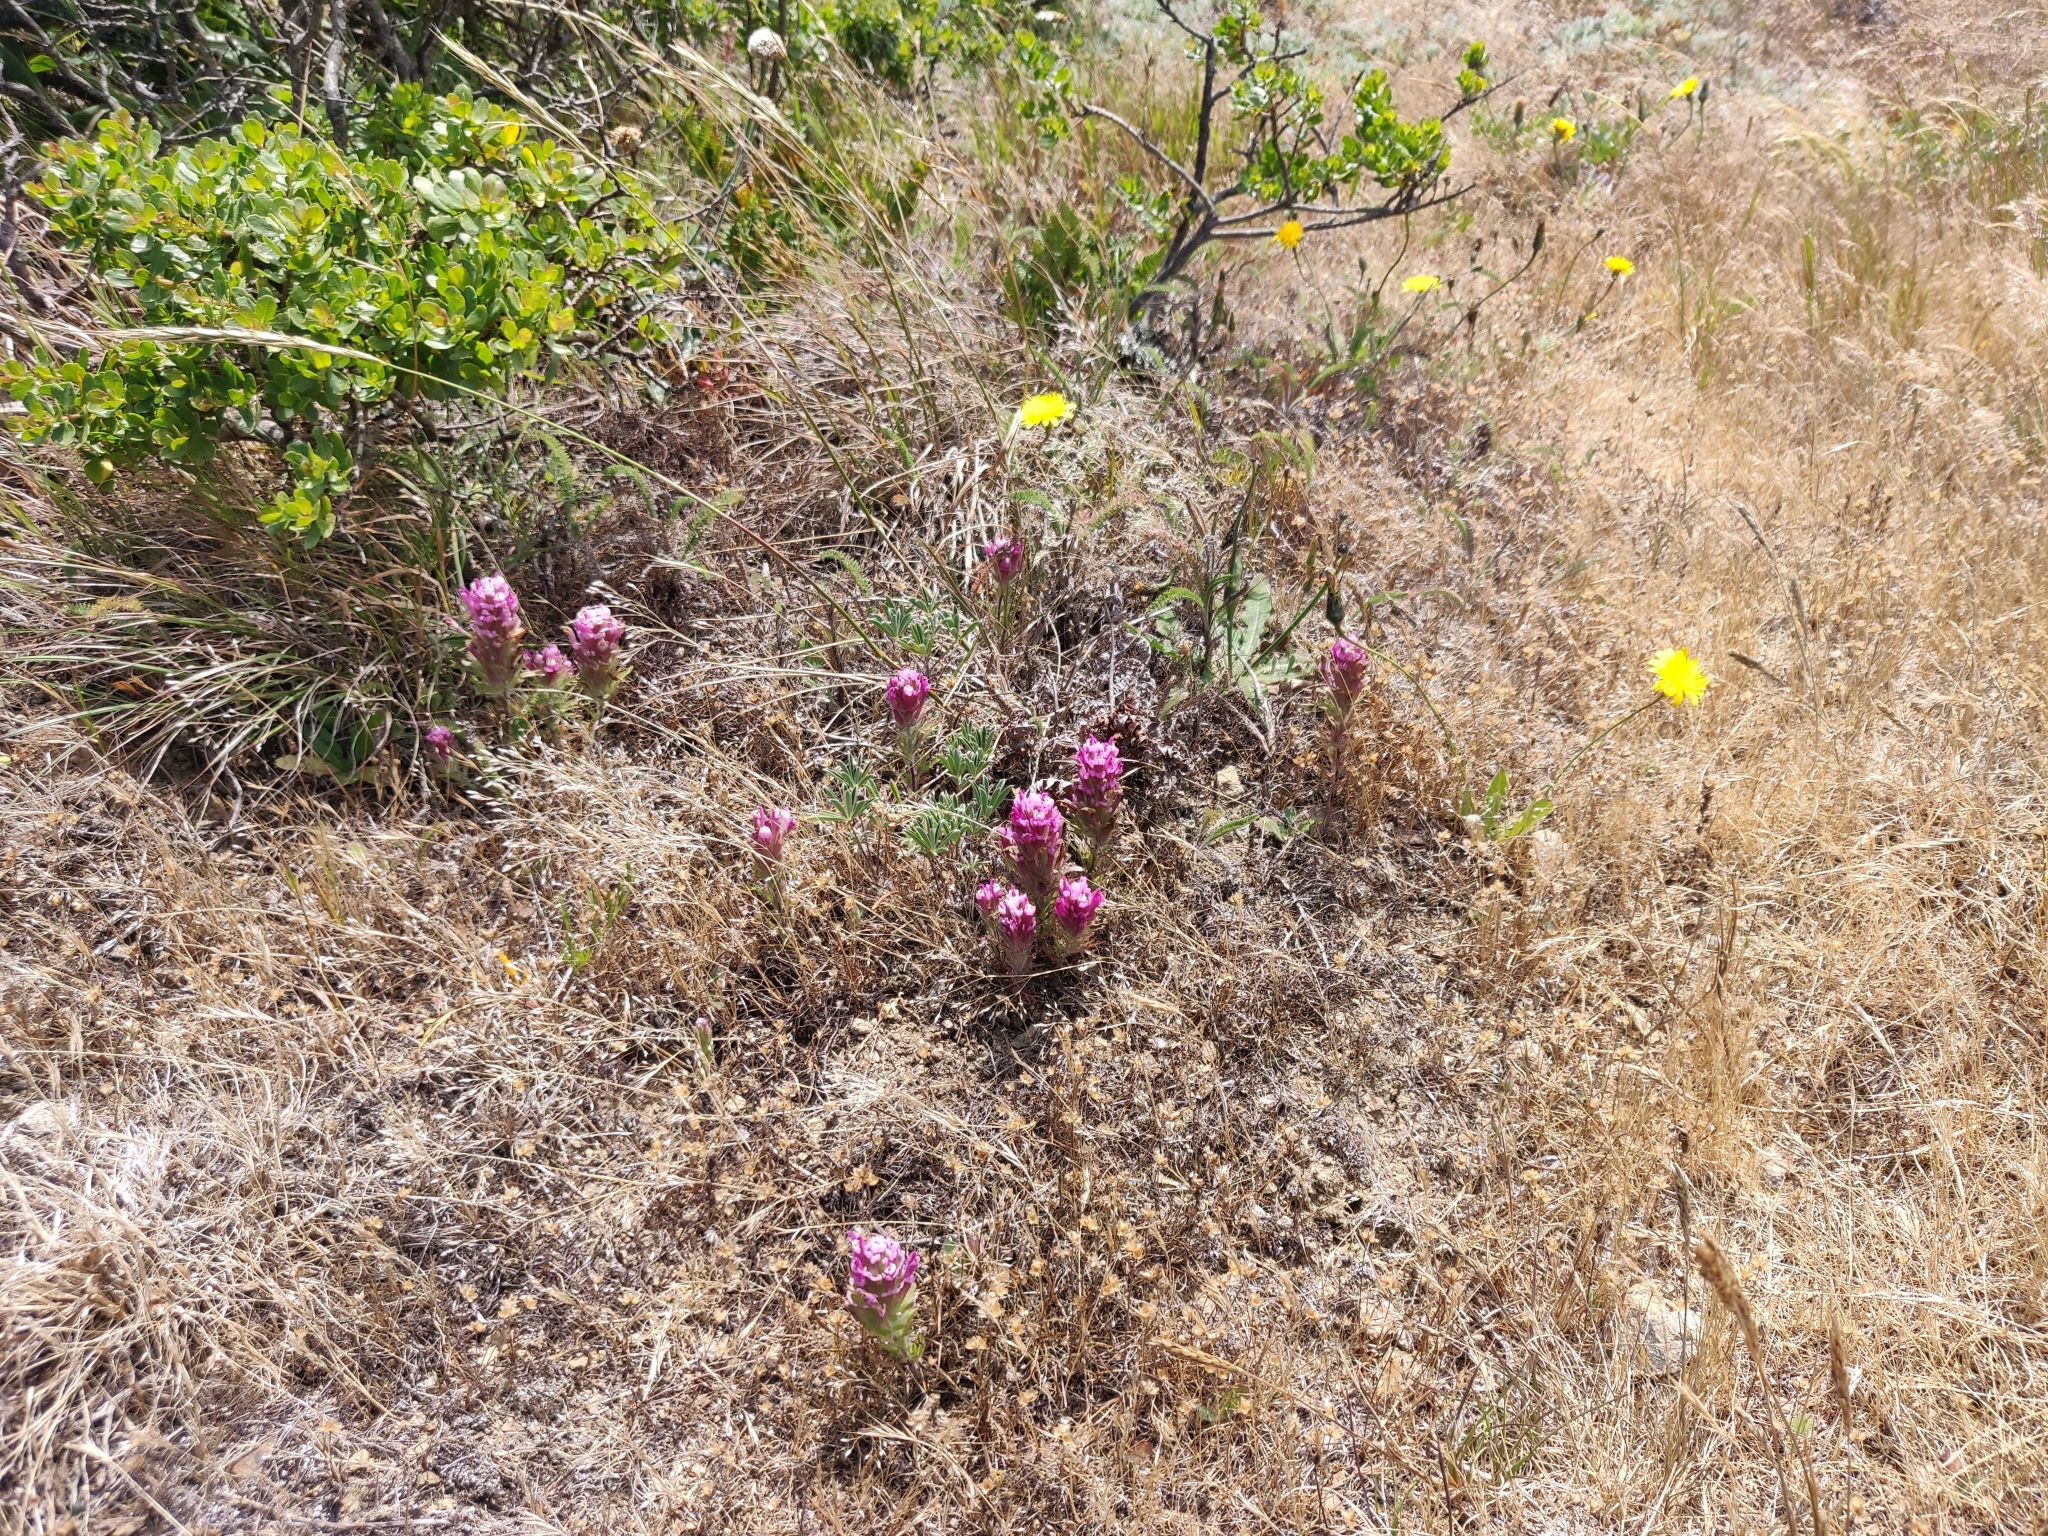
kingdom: Plantae
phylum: Tracheophyta
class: Magnoliopsida
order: Lamiales
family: Orobanchaceae
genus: Castilleja
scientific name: Castilleja exserta
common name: Purple owl-clover
